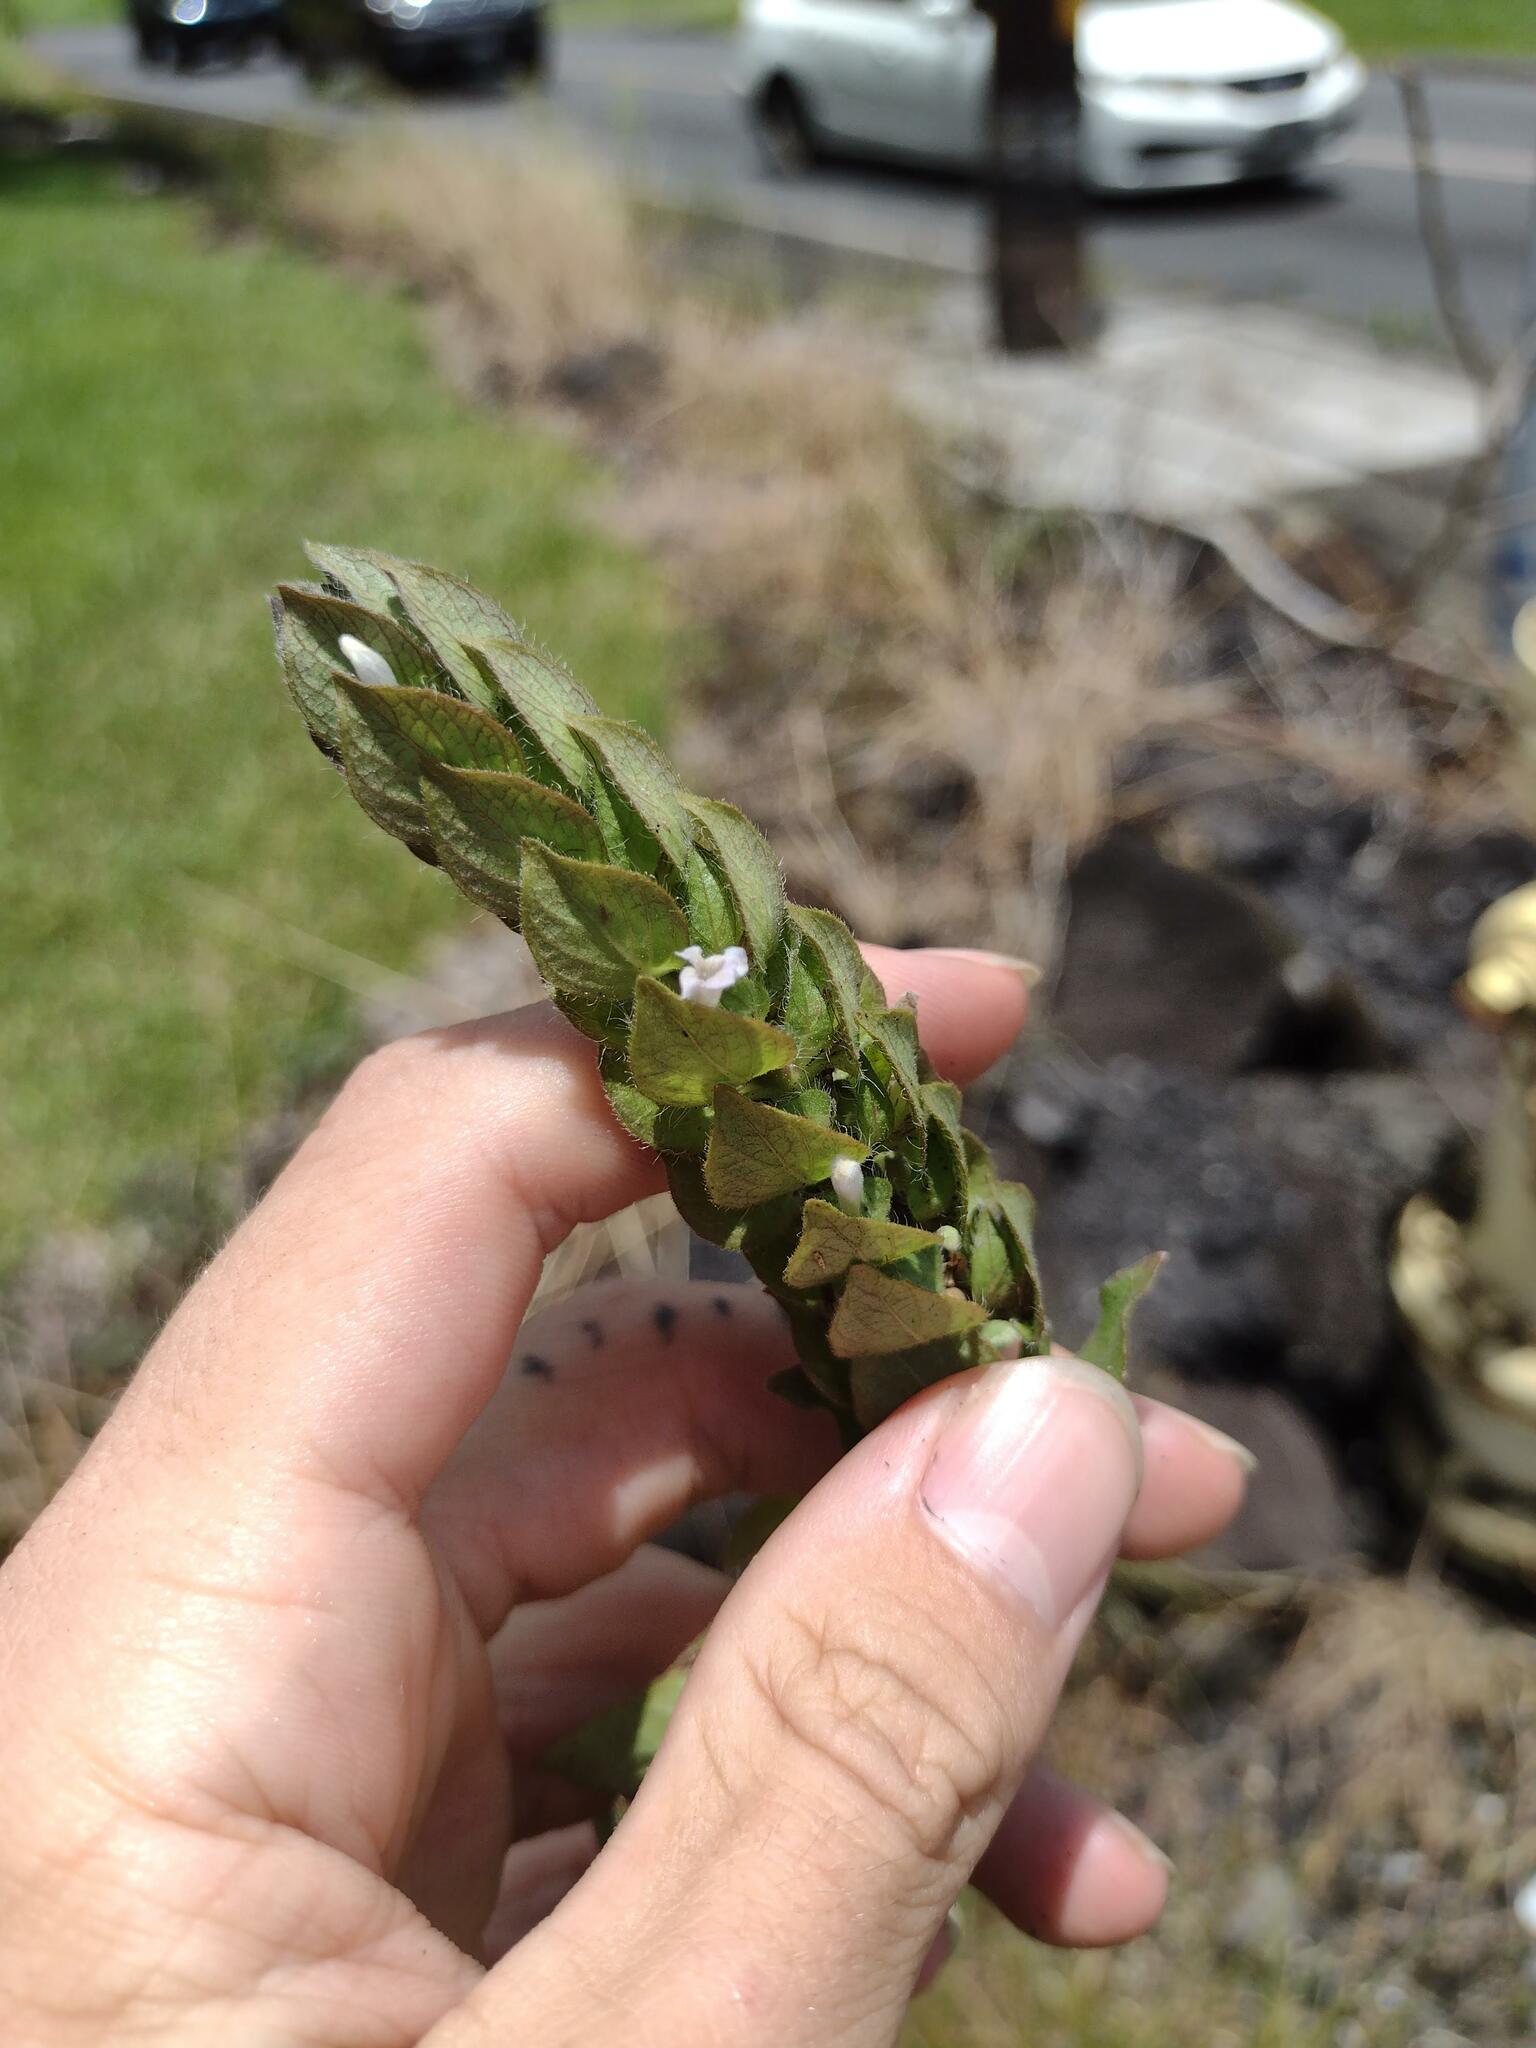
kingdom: Plantae
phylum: Tracheophyta
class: Magnoliopsida
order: Lamiales
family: Acanthaceae
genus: Ruellia
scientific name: Ruellia blechum
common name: Browne's blechum
